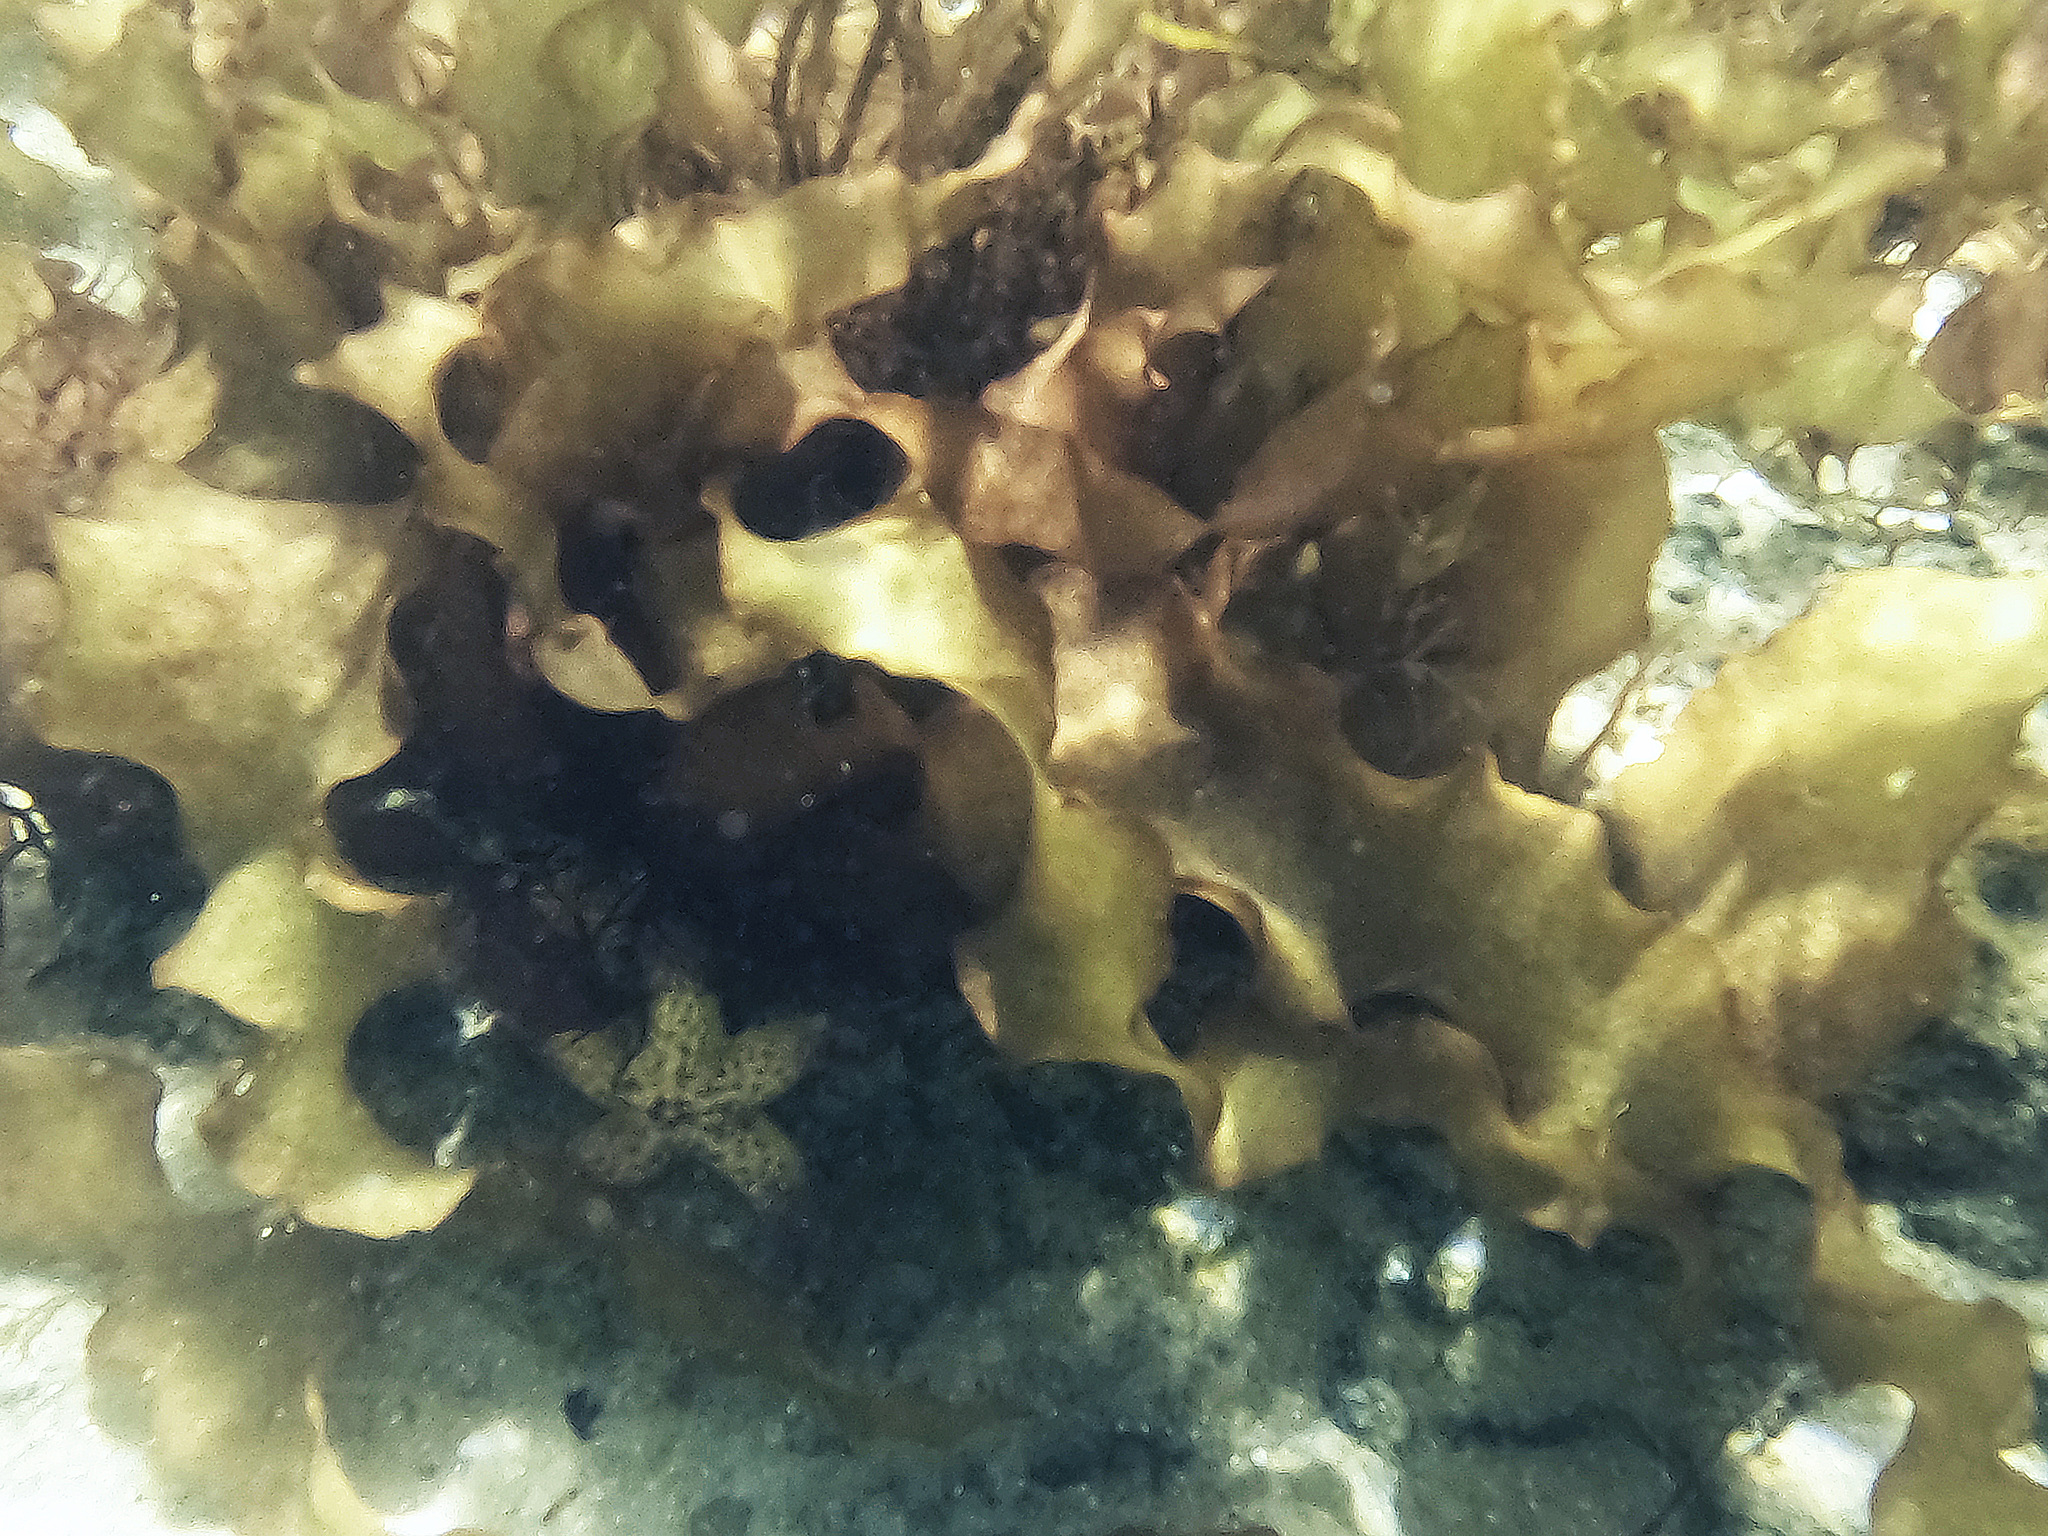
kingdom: Animalia
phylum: Echinodermata
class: Asteroidea
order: Forcipulatida
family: Asteriidae
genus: Asterias
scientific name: Asterias amurensis
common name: Flat-bottomed star
